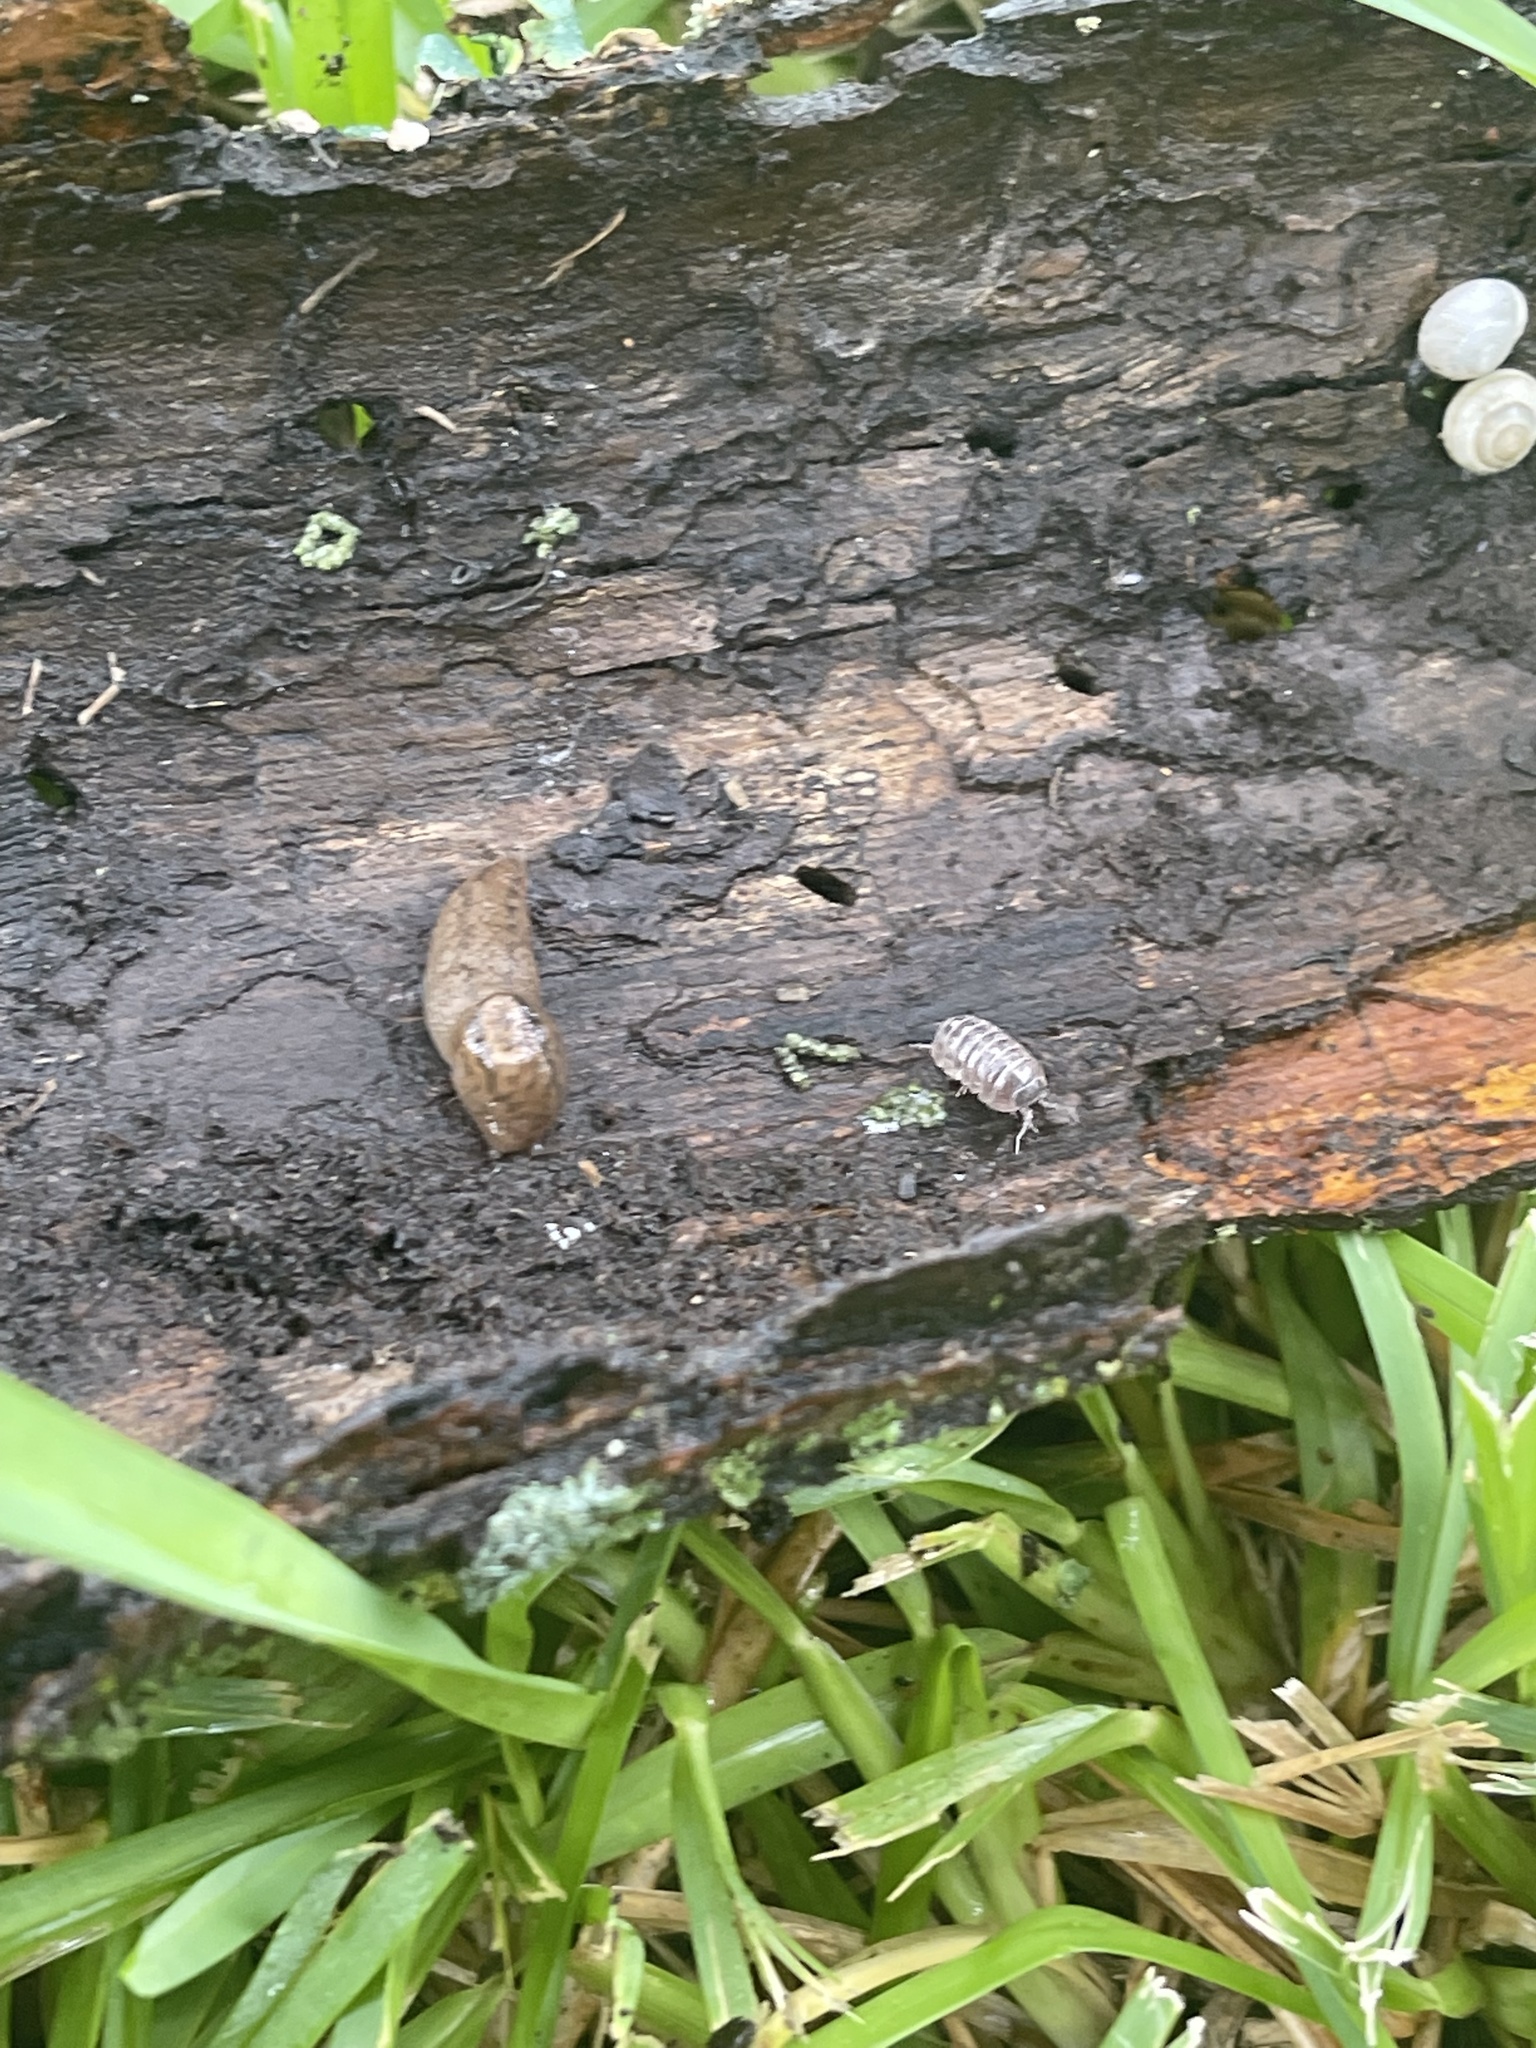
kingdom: Animalia
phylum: Mollusca
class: Gastropoda
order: Stylommatophora
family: Limacidae
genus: Ambigolimax
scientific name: Ambigolimax
